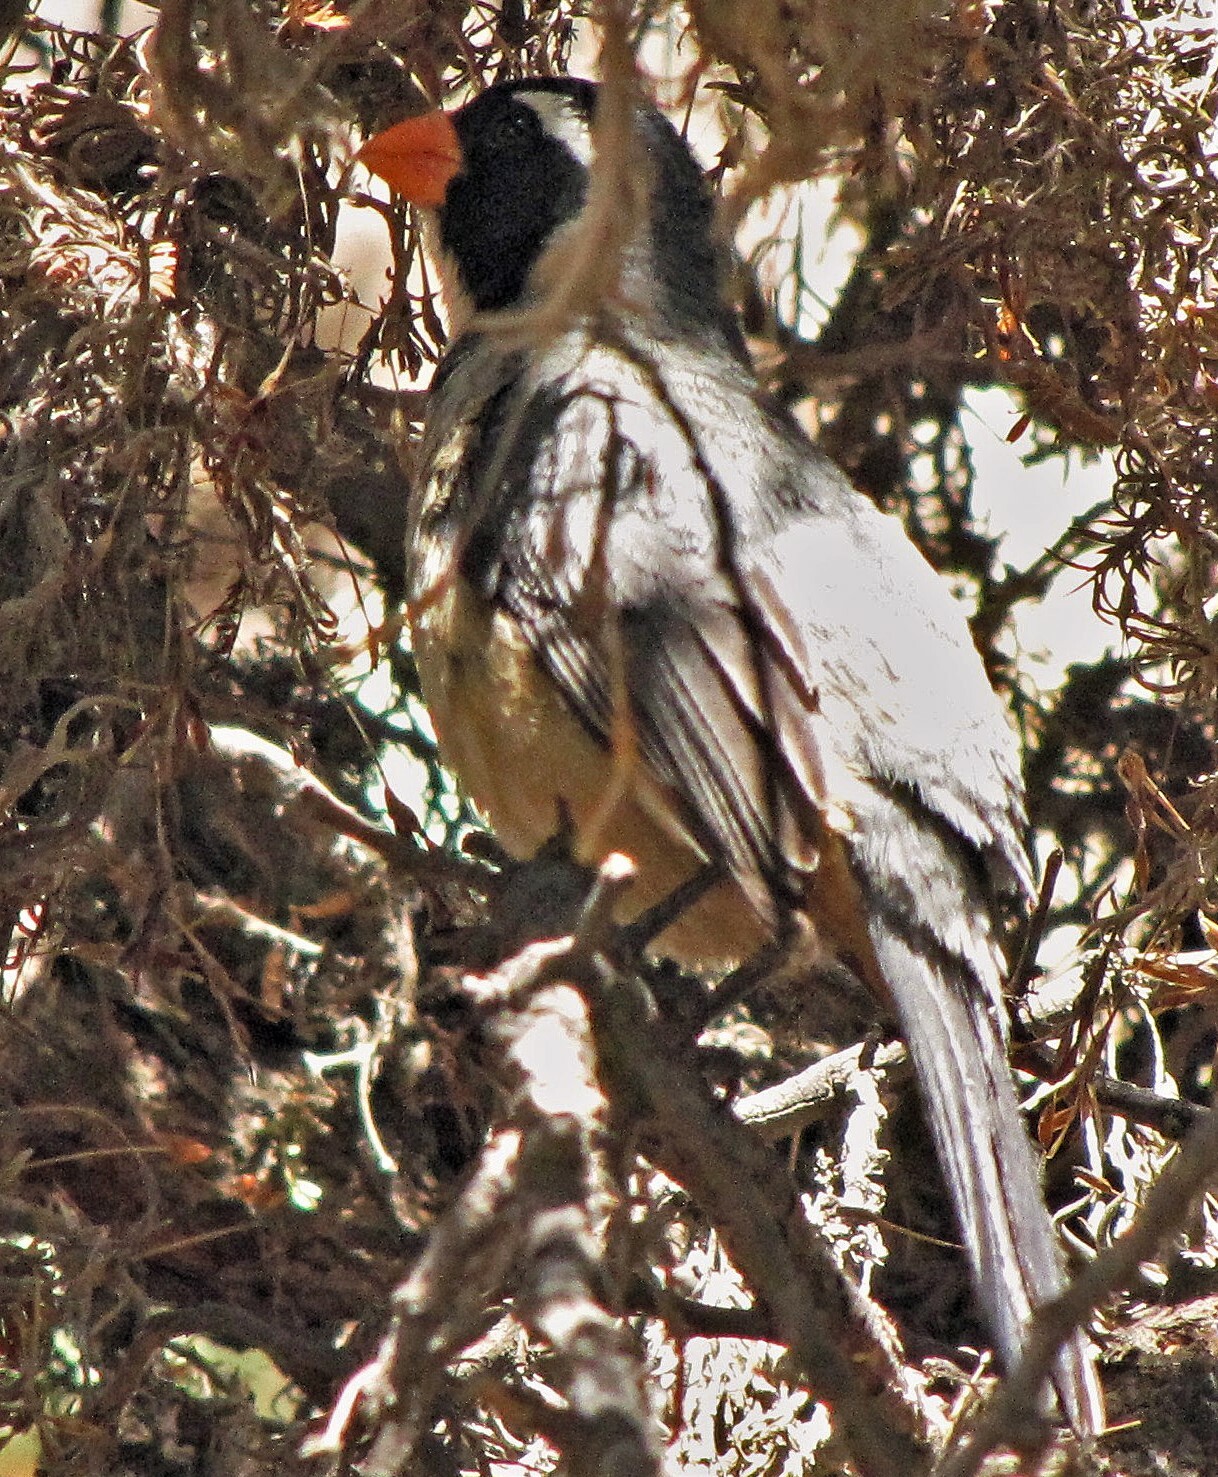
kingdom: Animalia
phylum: Chordata
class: Aves
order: Passeriformes
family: Thraupidae
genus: Saltator
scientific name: Saltator aurantiirostris
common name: Golden-billed saltator
